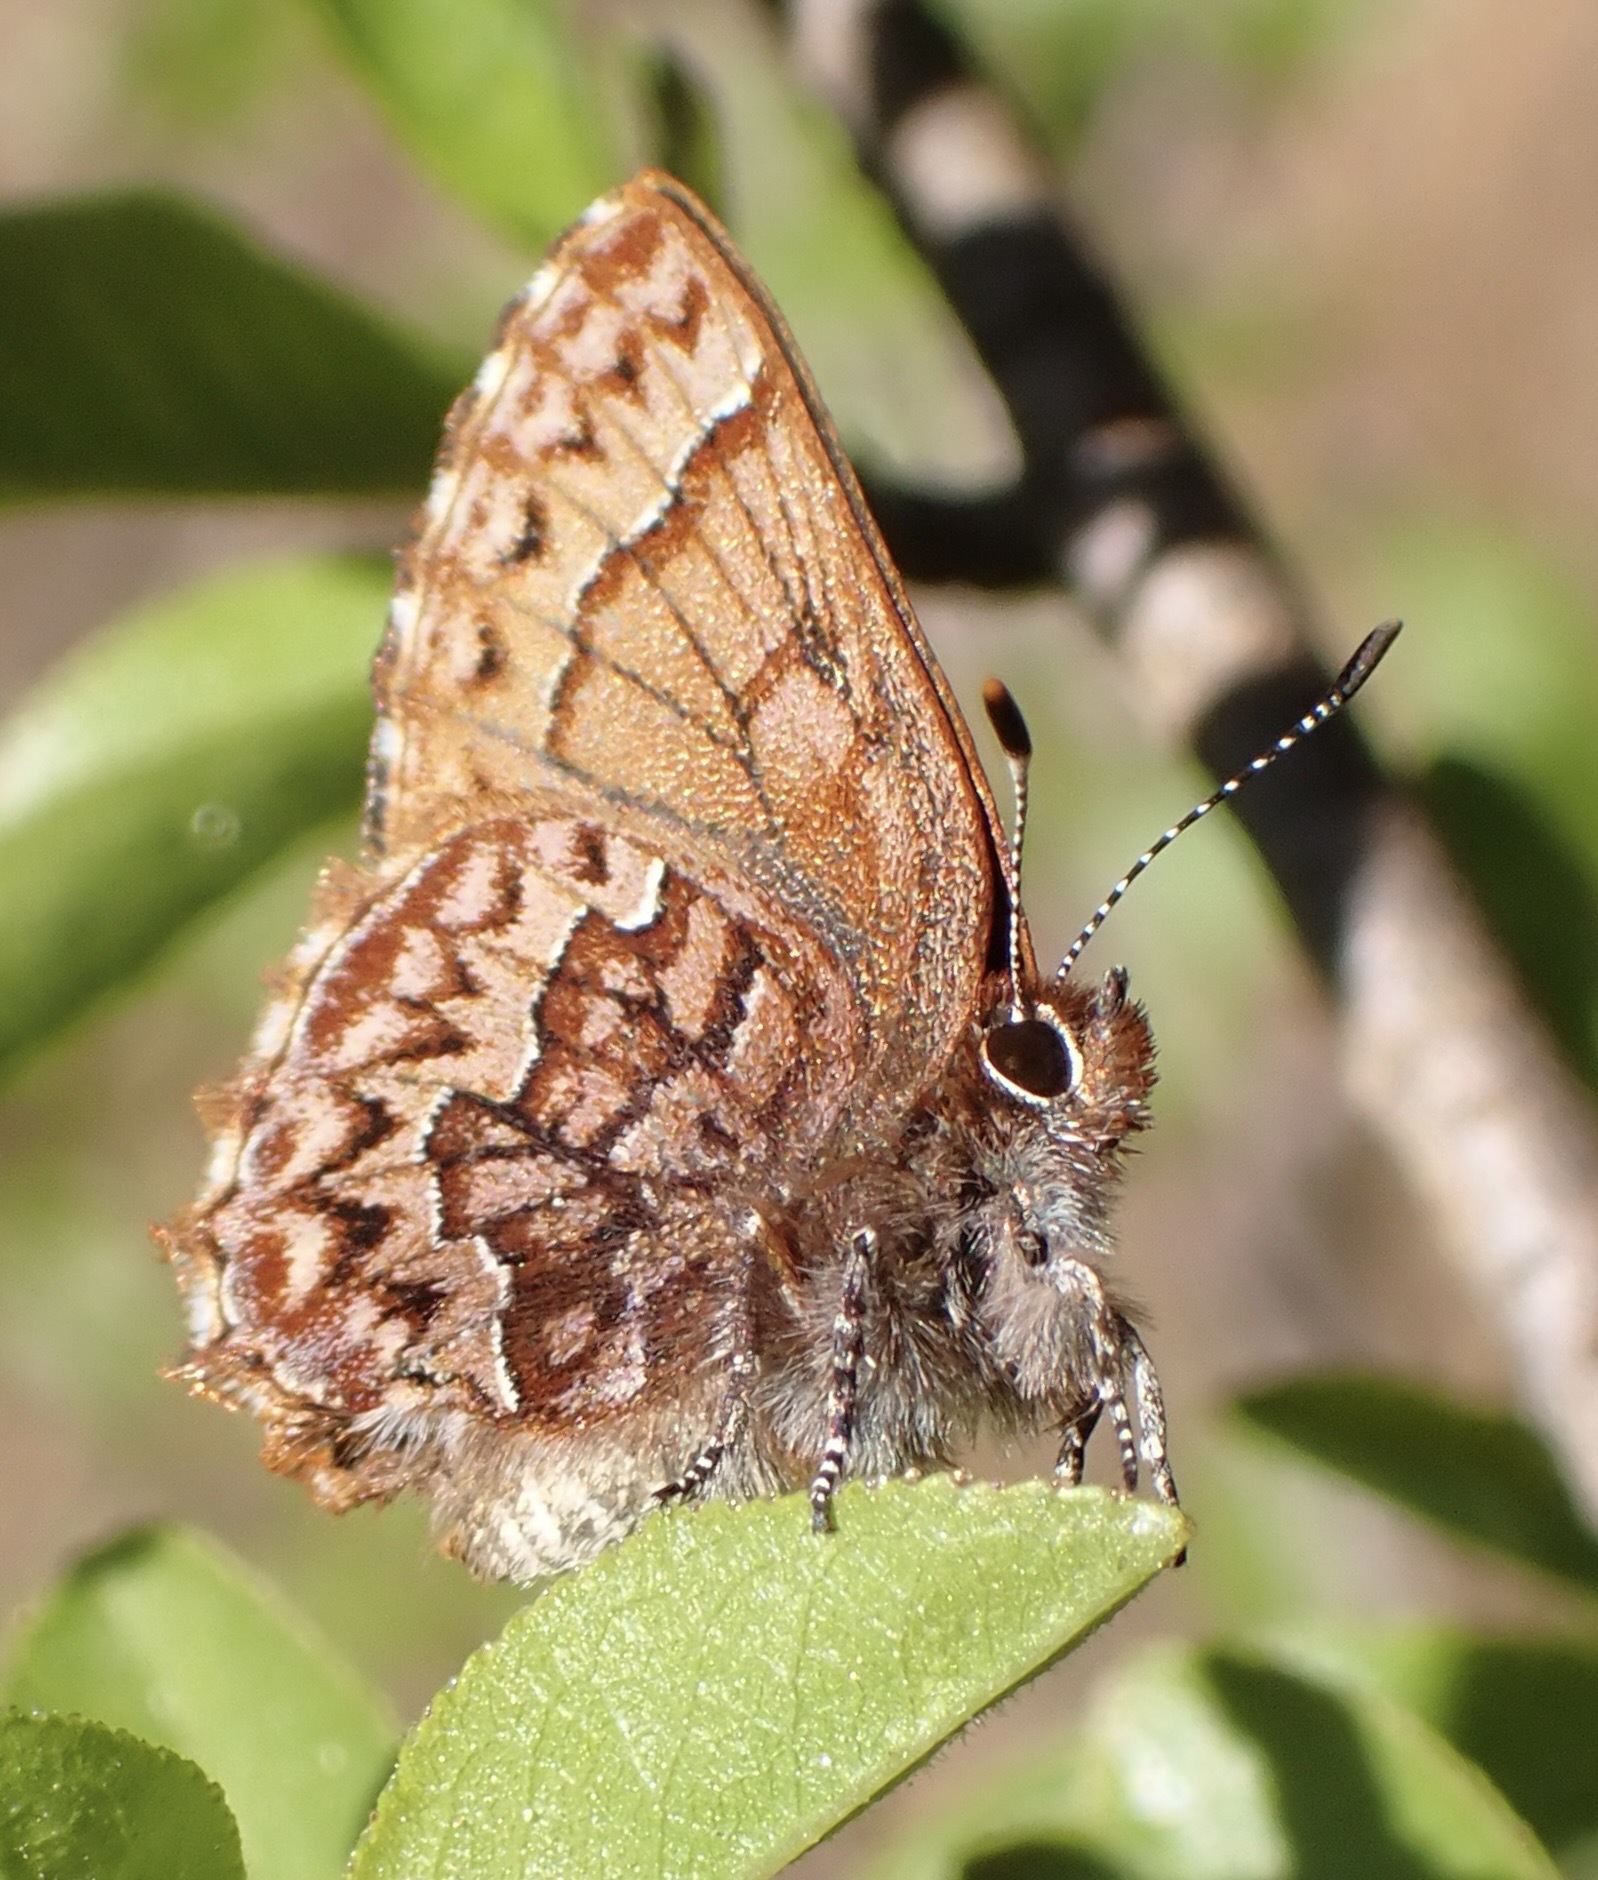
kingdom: Animalia
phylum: Arthropoda
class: Insecta
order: Lepidoptera
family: Lycaenidae
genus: Incisalia
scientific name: Incisalia eryphon
